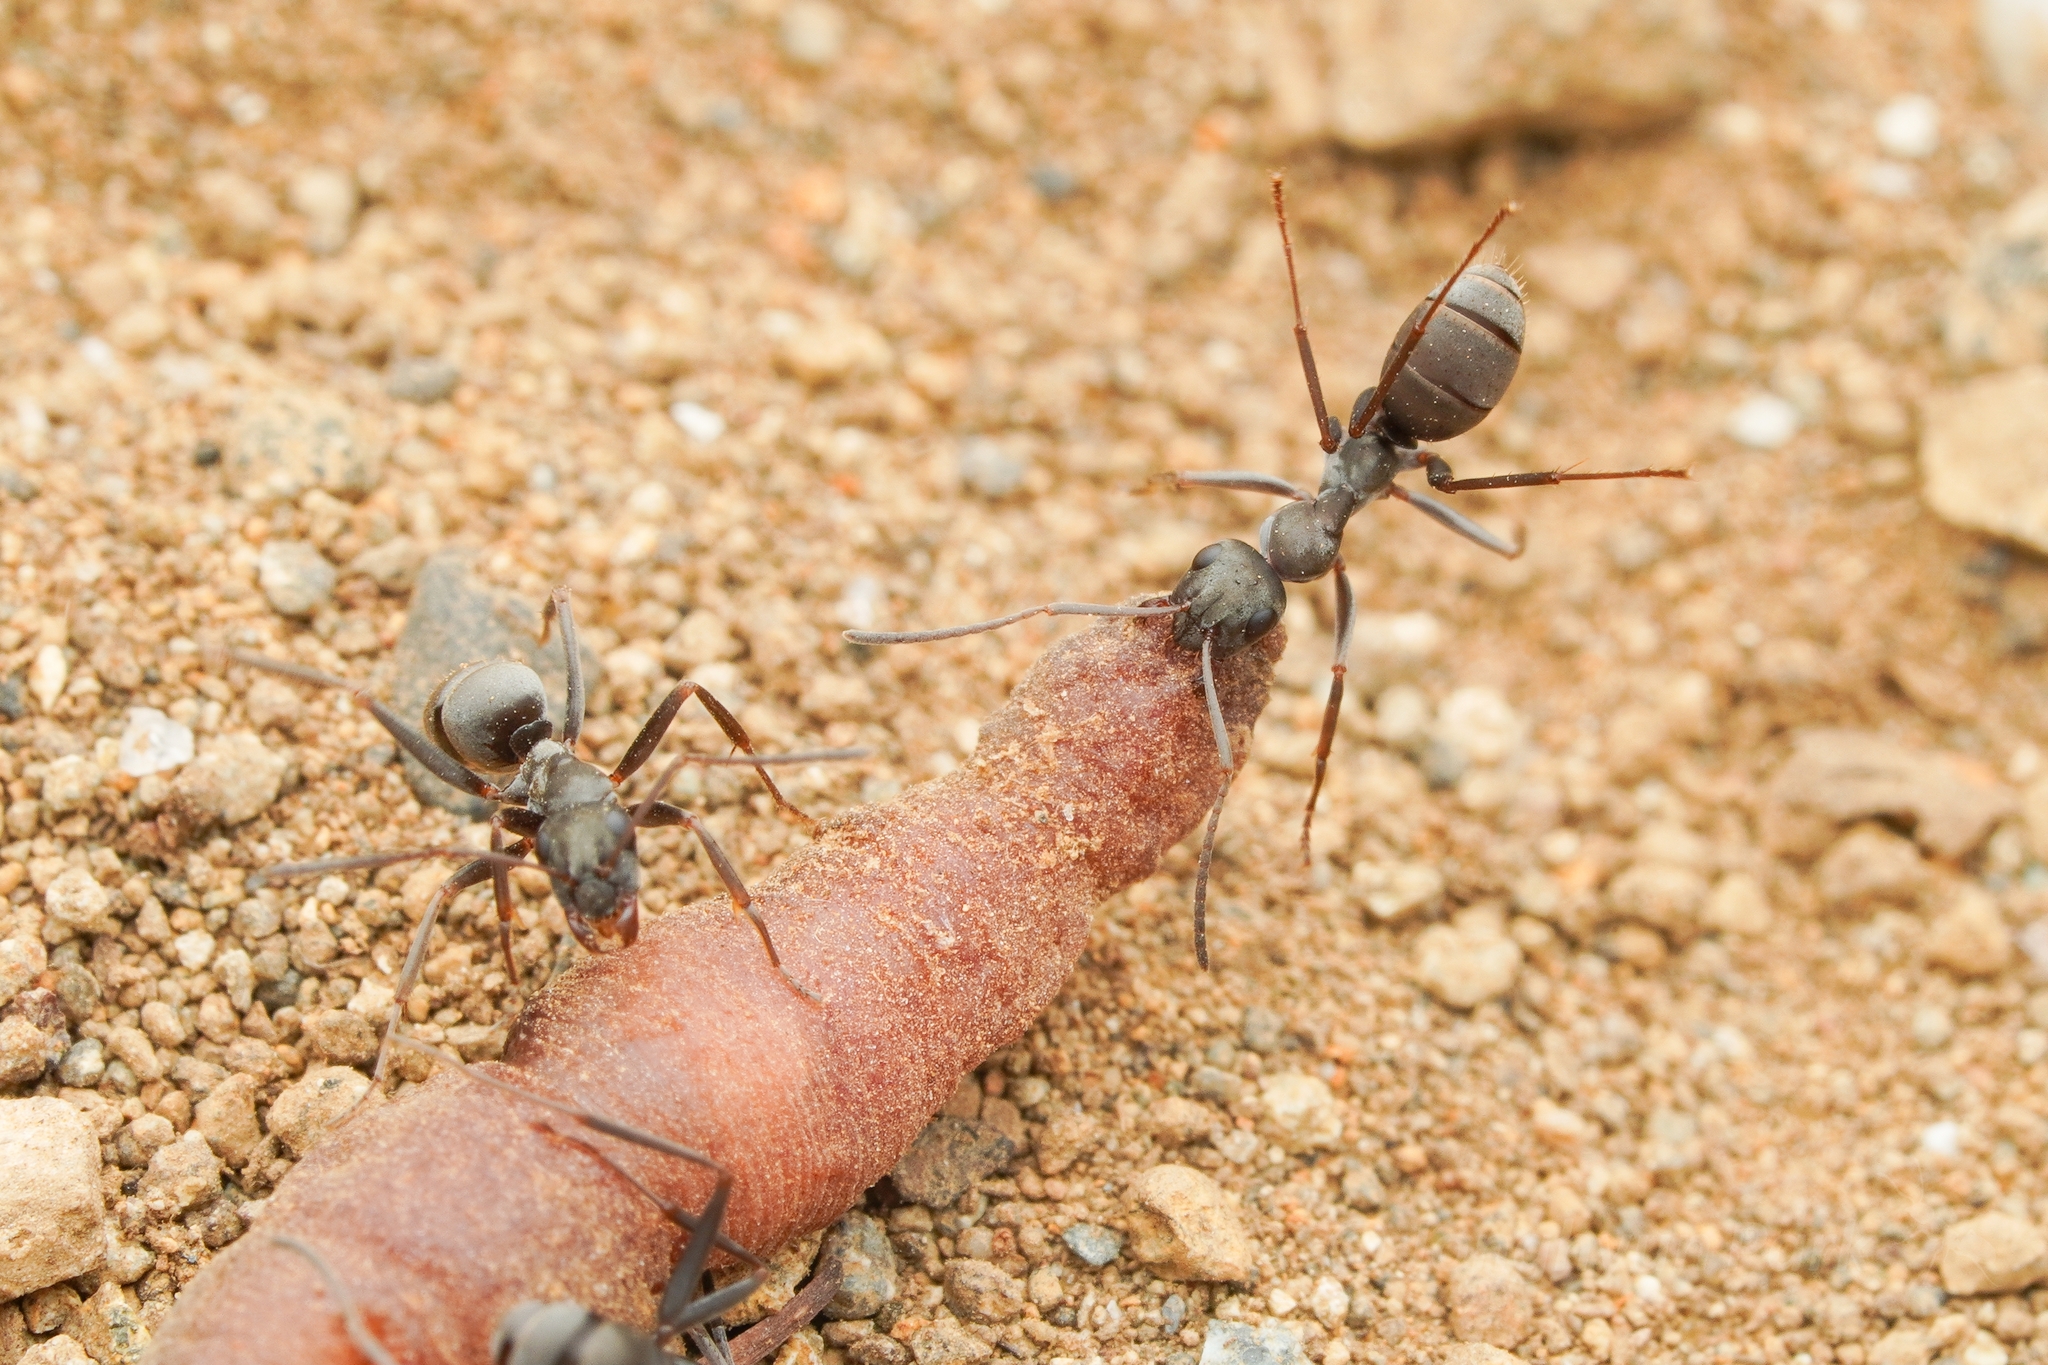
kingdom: Animalia
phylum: Arthropoda
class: Insecta
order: Hymenoptera
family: Formicidae
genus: Formica
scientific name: Formica japonica
